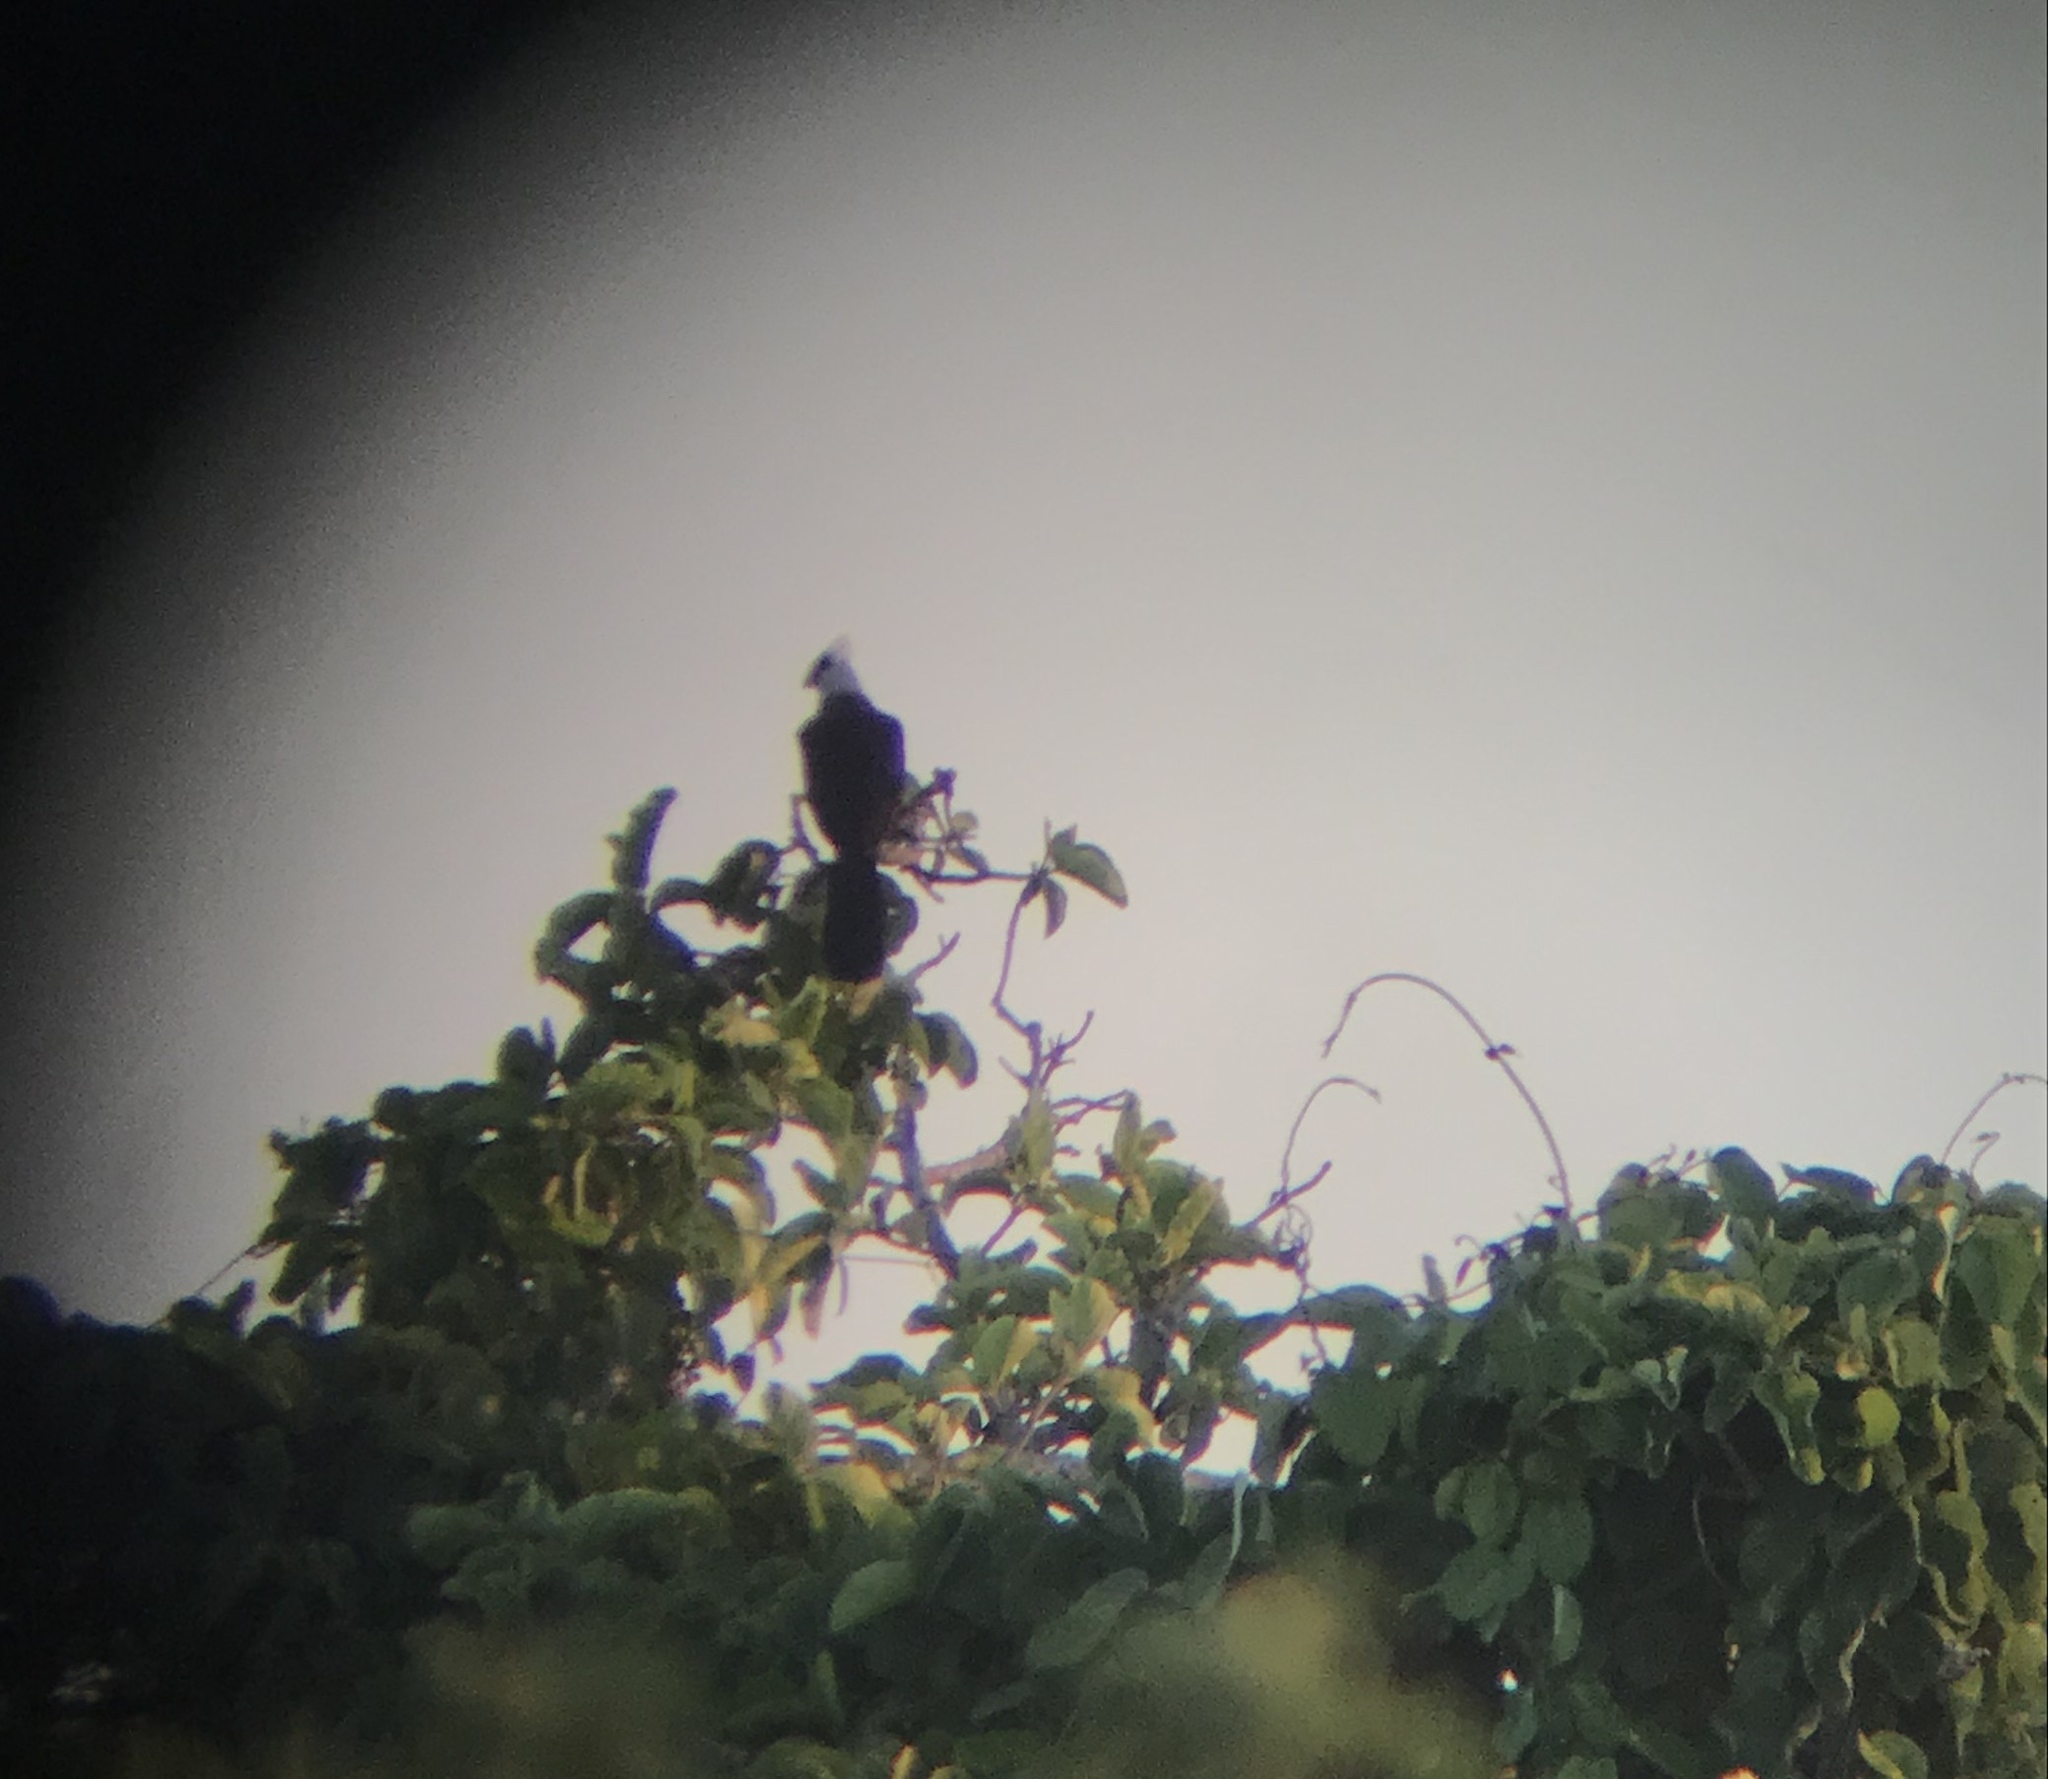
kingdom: Animalia
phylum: Chordata
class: Aves
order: Musophagiformes
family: Musophagidae
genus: Tauraco
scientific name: Tauraco leucolophus
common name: White-crested turaco
